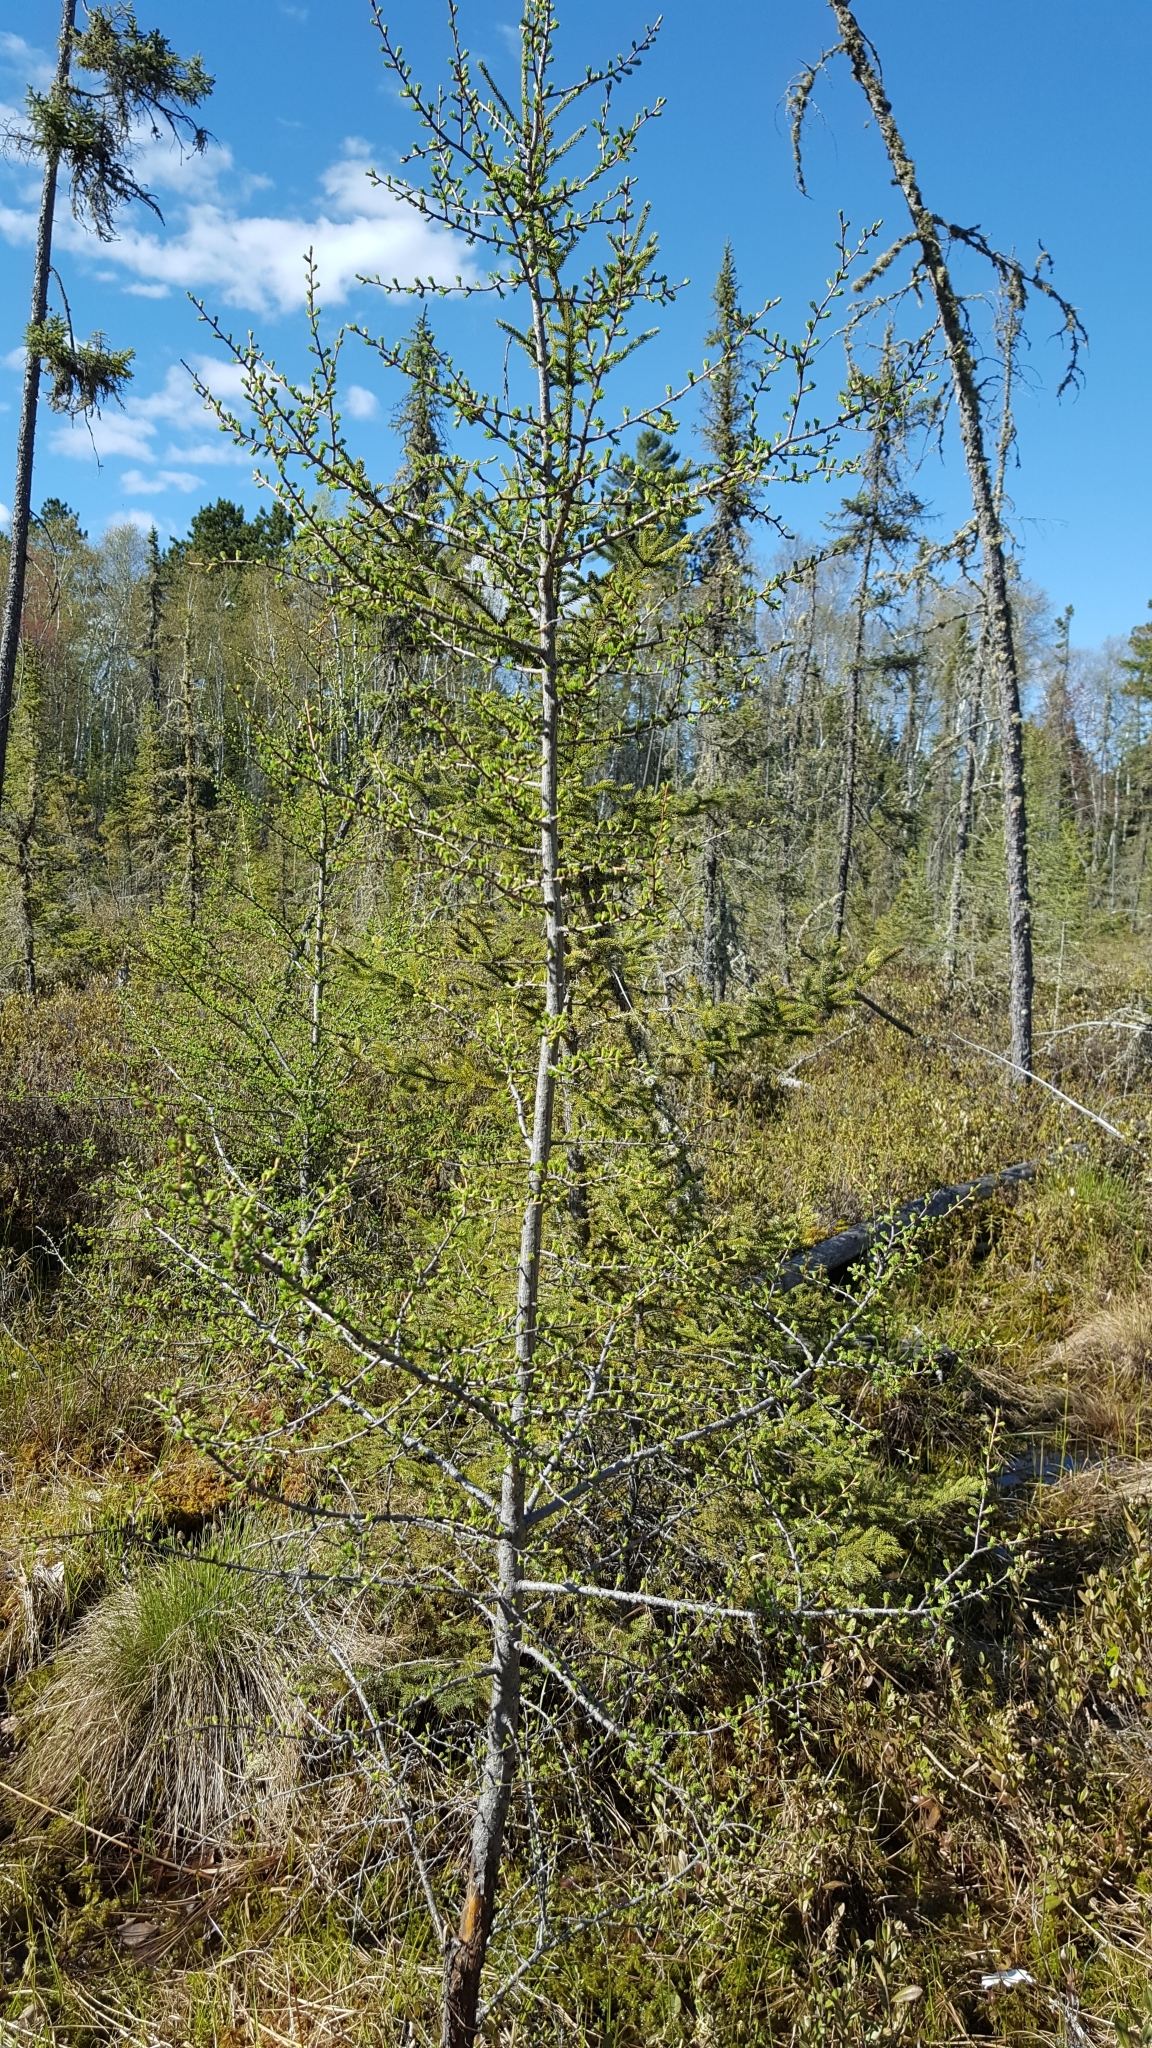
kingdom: Plantae
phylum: Tracheophyta
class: Pinopsida
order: Pinales
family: Pinaceae
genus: Larix
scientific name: Larix laricina
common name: American larch
